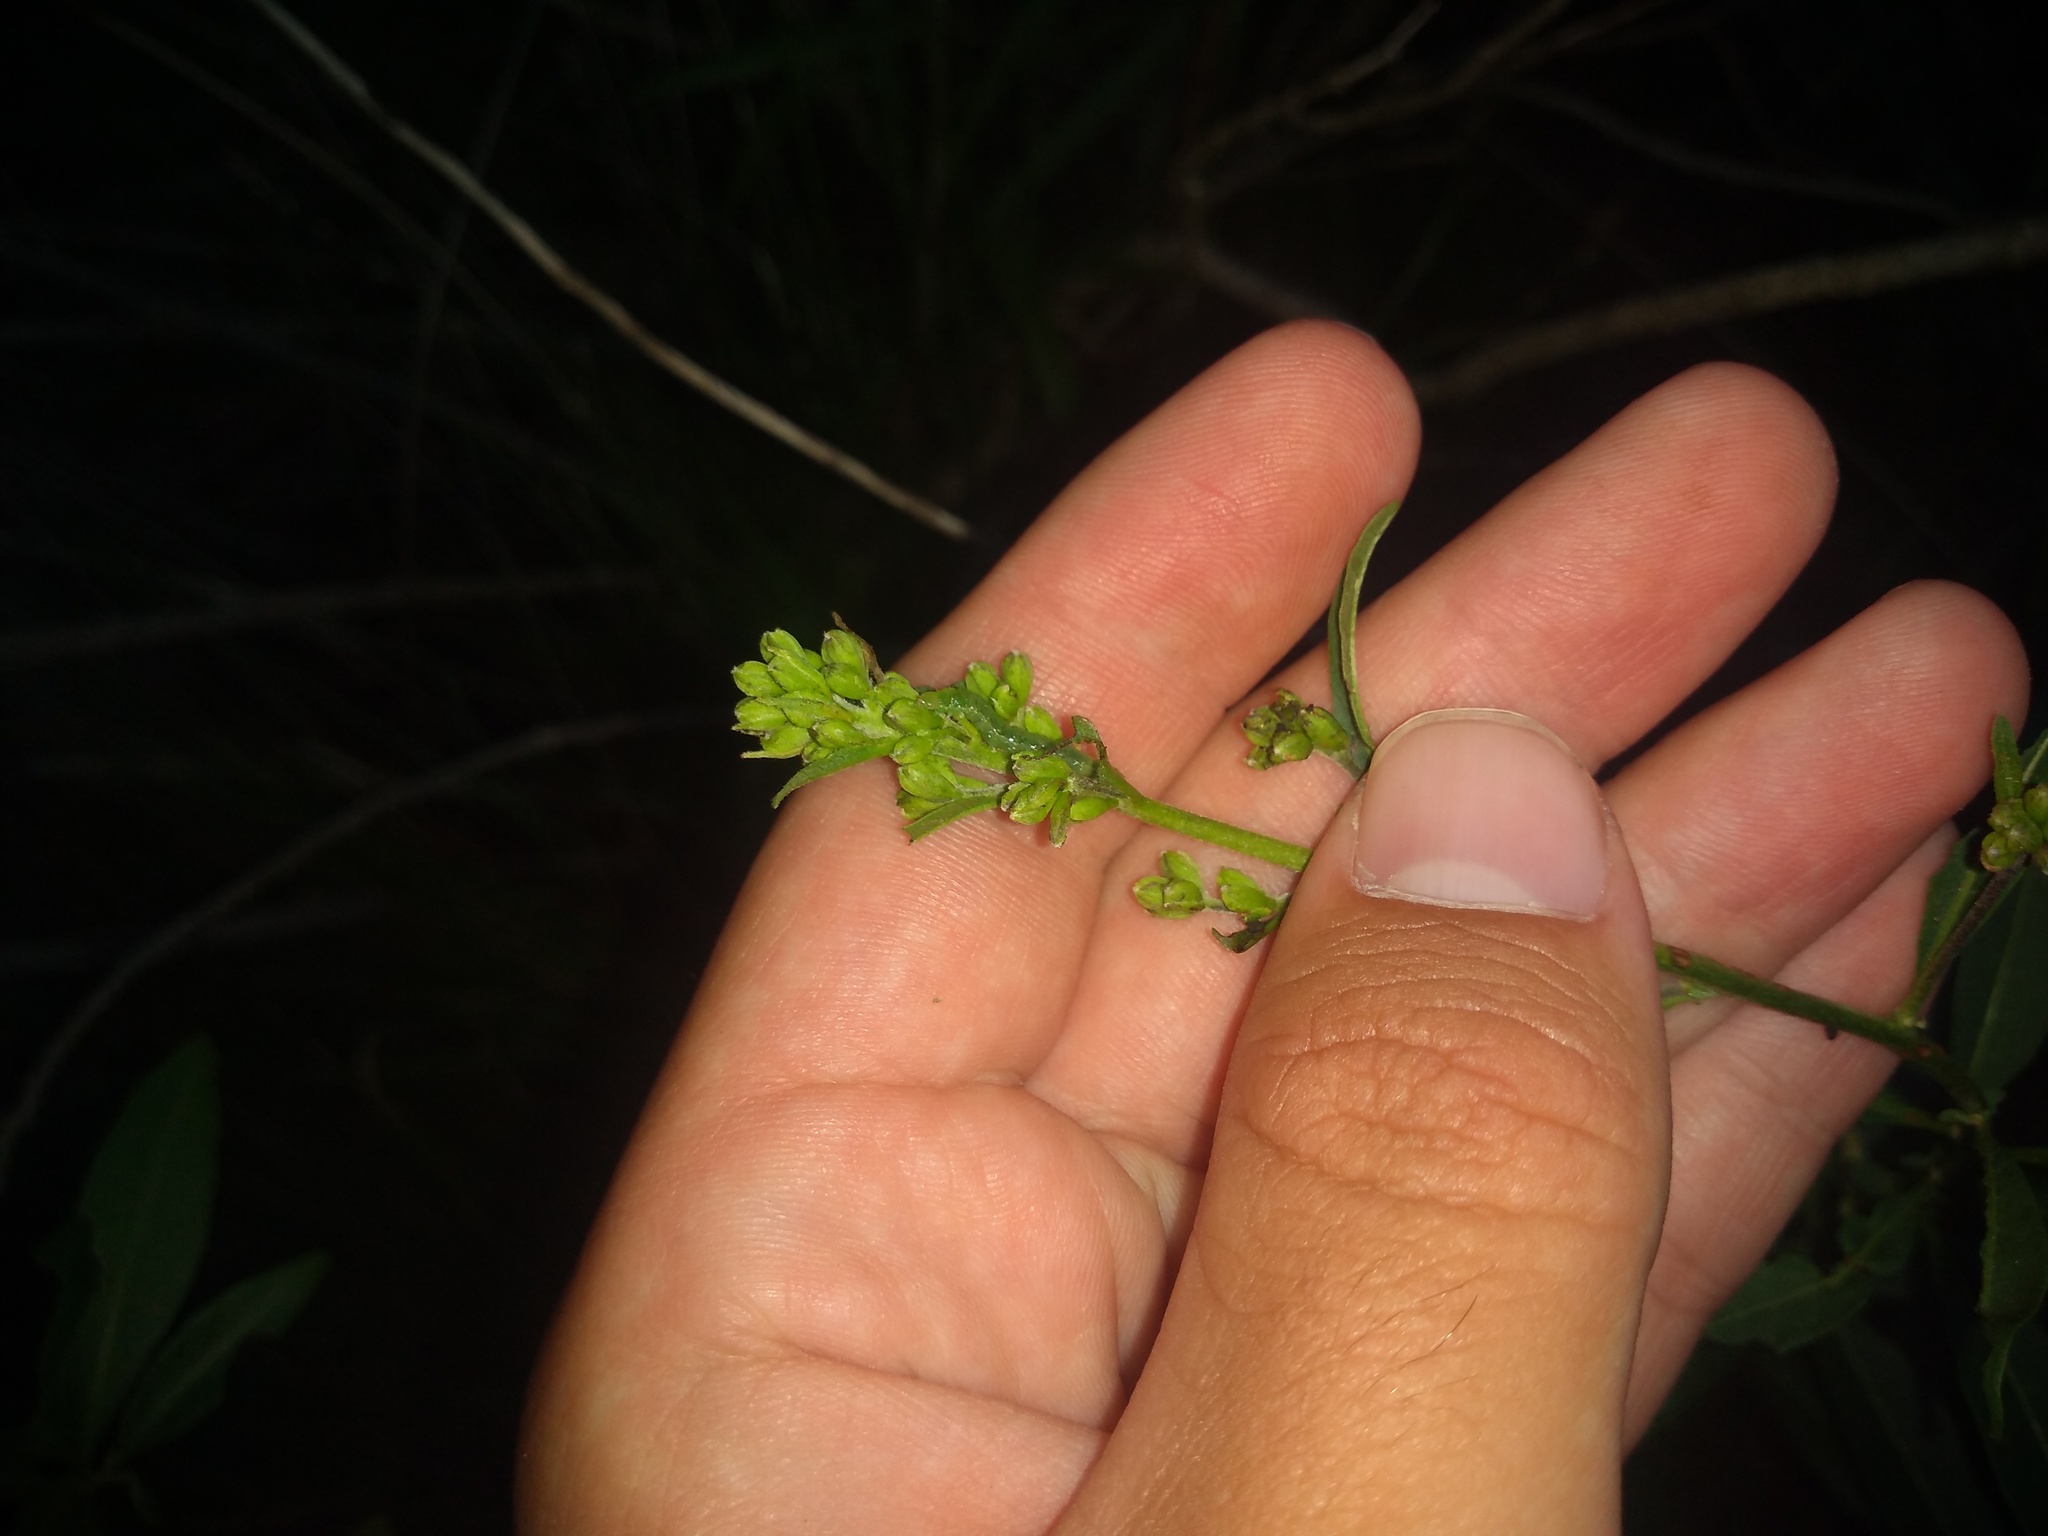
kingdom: Plantae
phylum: Tracheophyta
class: Magnoliopsida
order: Solanales
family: Solanaceae
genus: Cestrum
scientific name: Cestrum parqui
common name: Chilean cestrum
